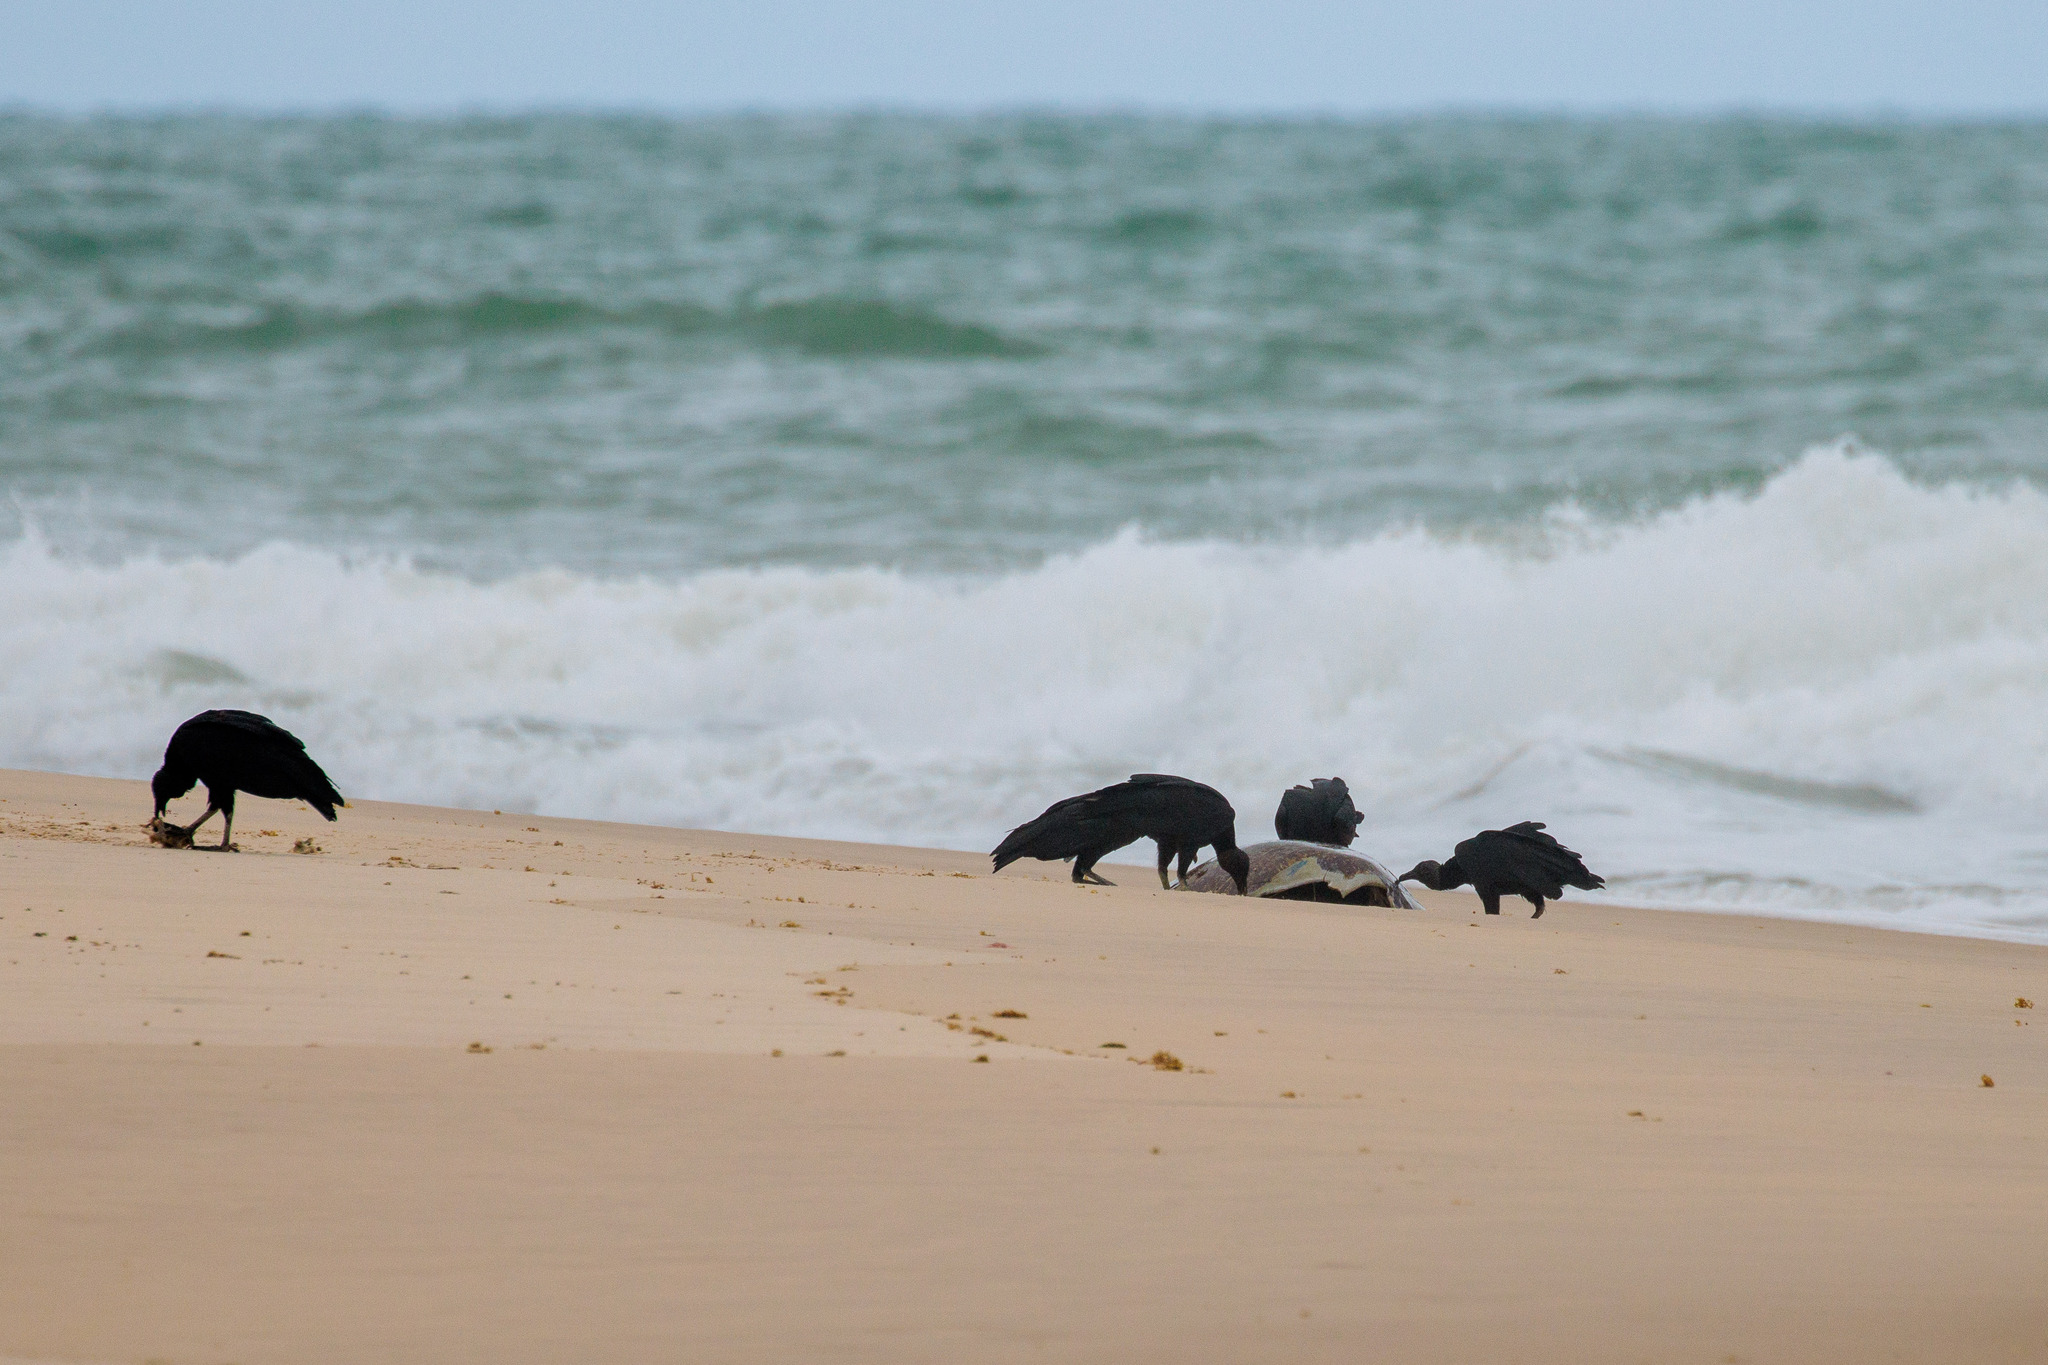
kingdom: Animalia
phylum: Chordata
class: Aves
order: Accipitriformes
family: Cathartidae
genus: Coragyps
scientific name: Coragyps atratus
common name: Black vulture
